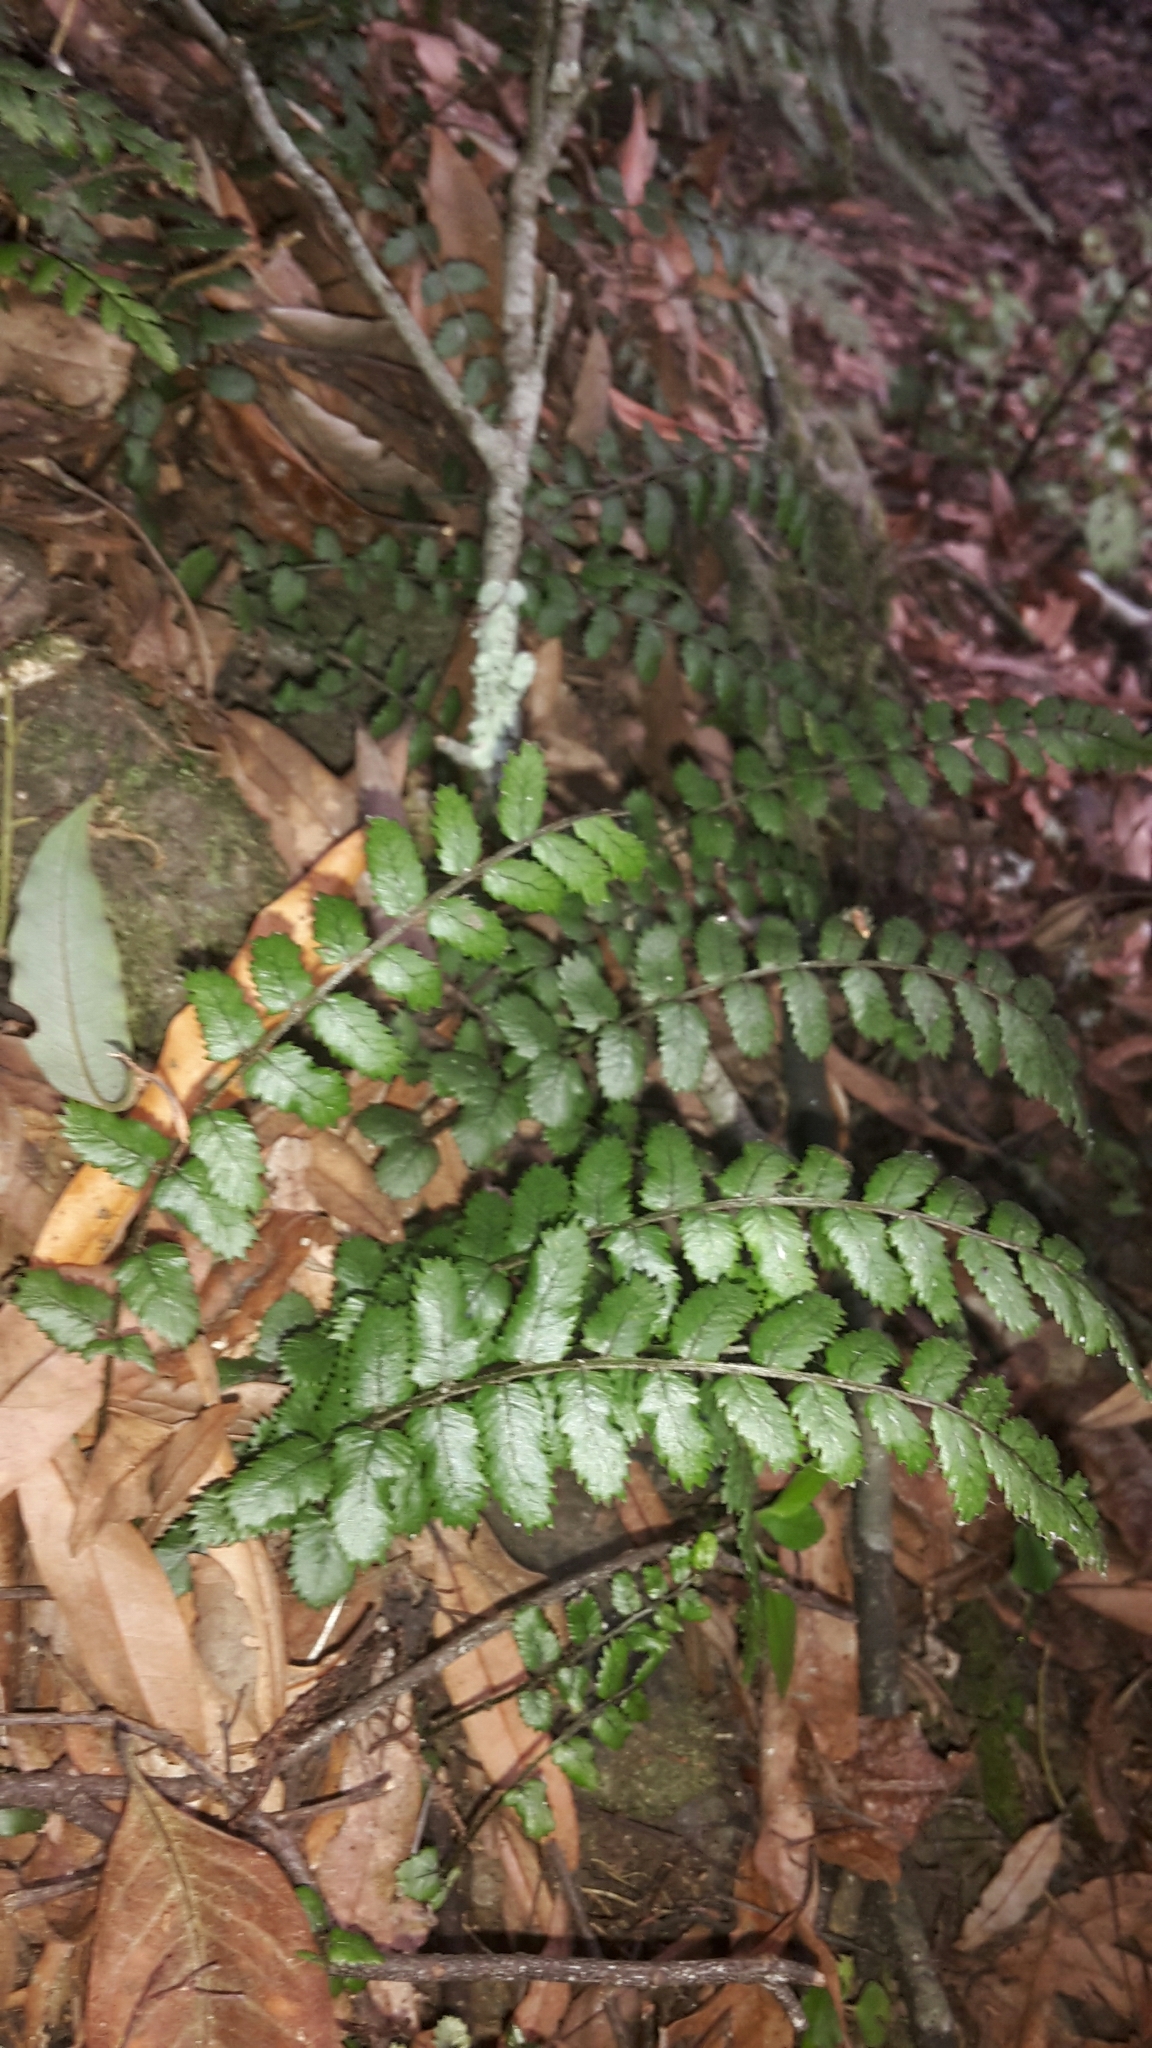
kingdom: Plantae
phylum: Tracheophyta
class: Polypodiopsida
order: Polypodiales
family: Blechnaceae
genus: Icarus
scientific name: Icarus filiformis
